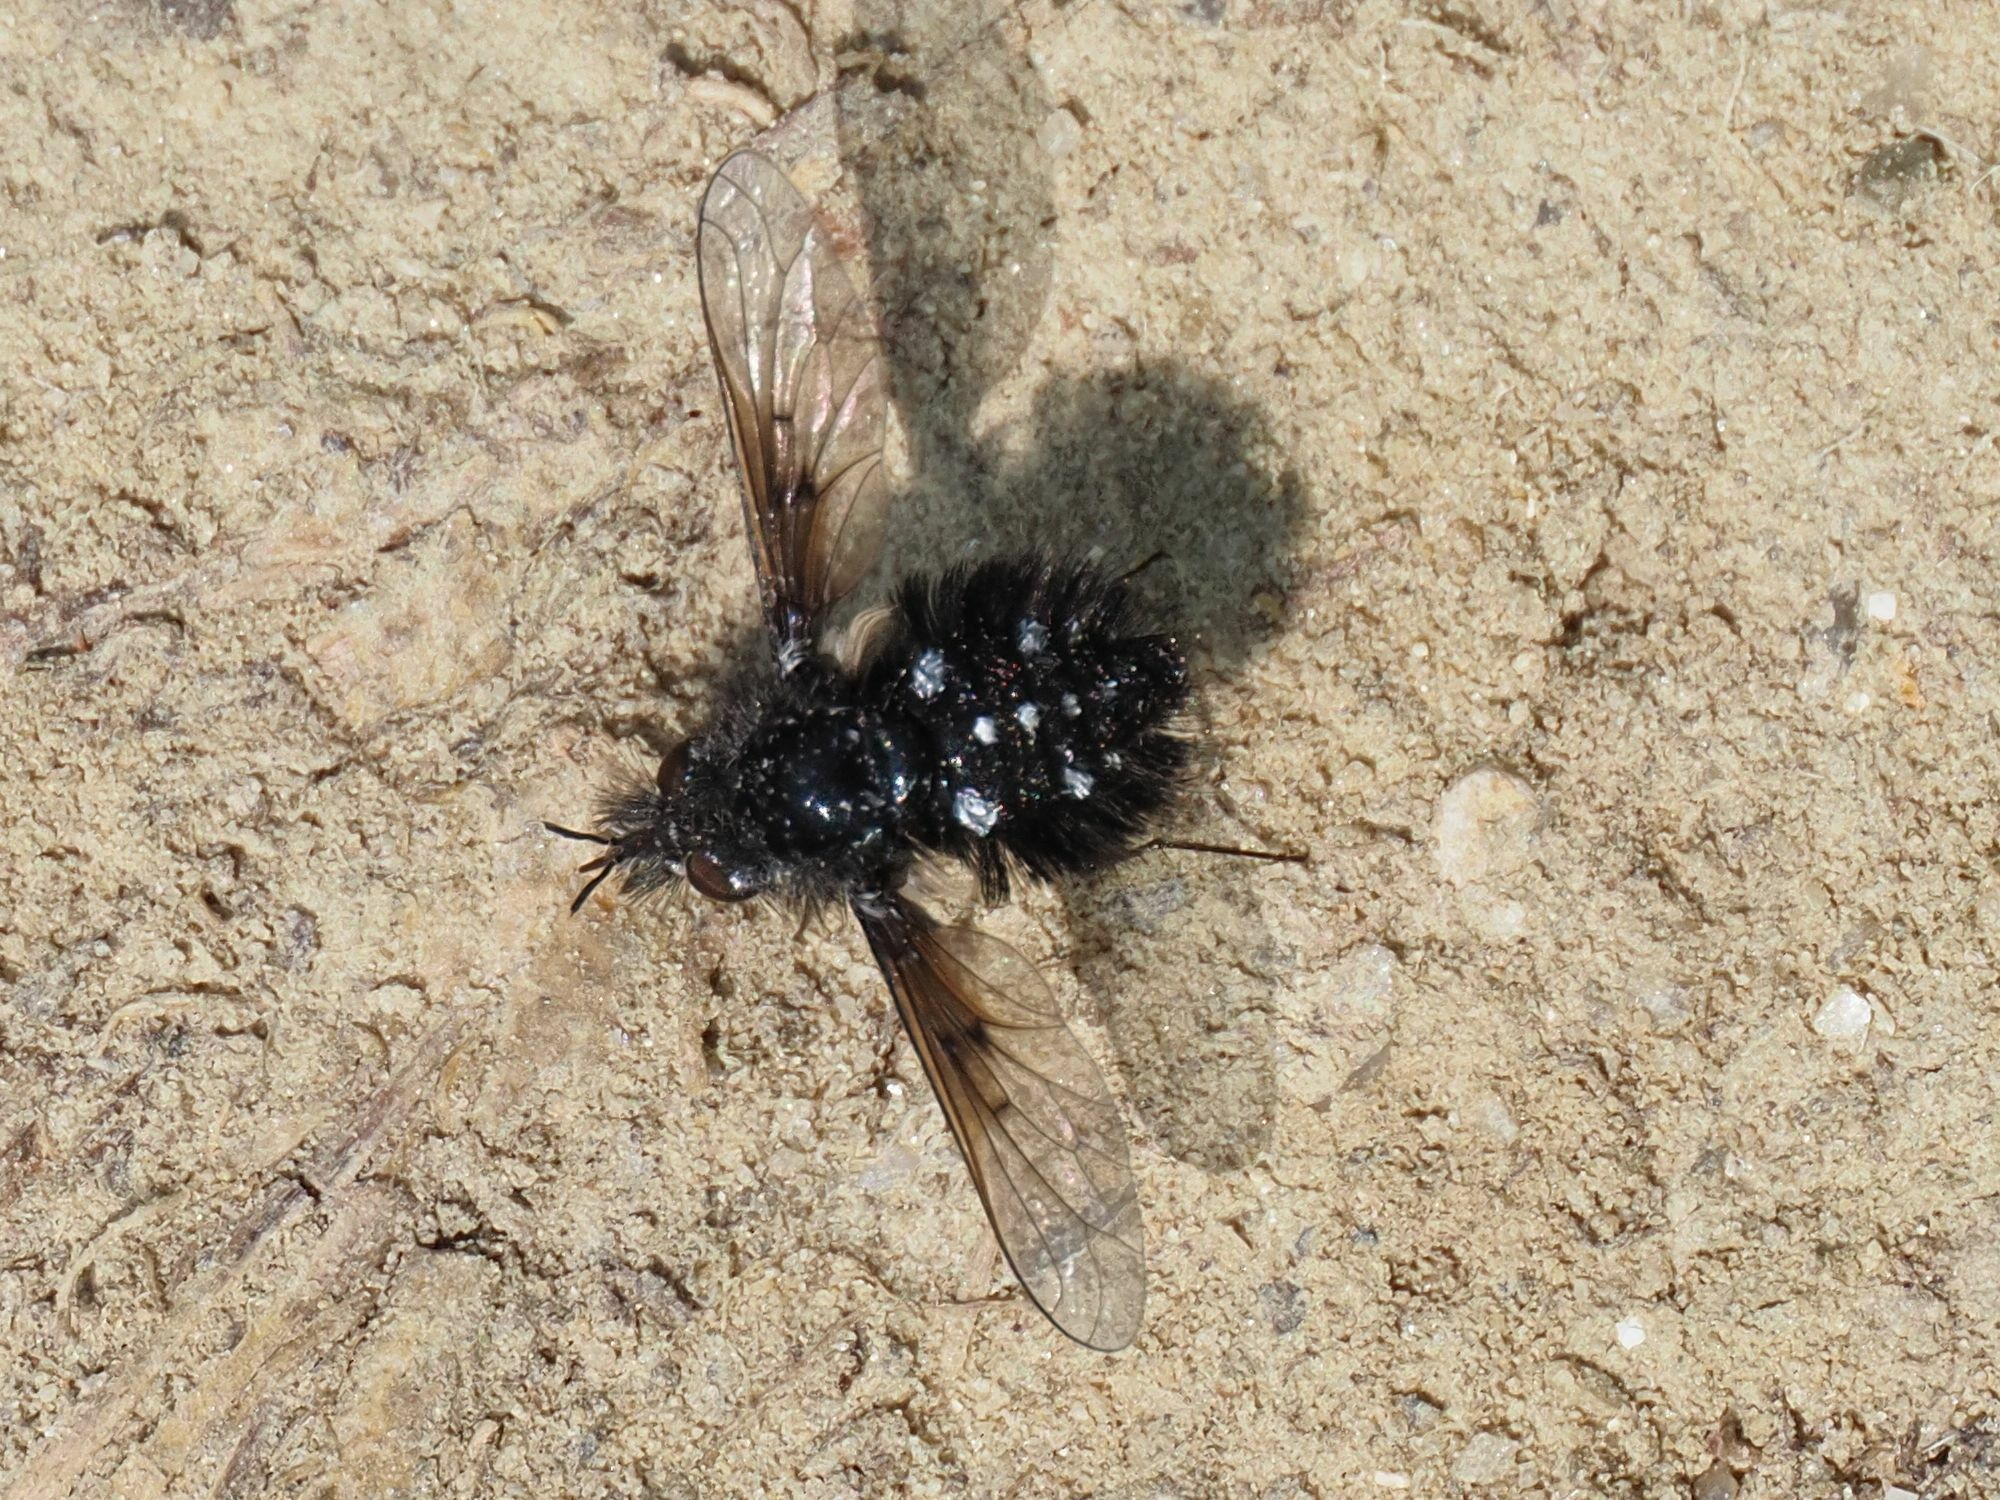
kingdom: Animalia
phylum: Arthropoda
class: Insecta
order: Diptera
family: Bombyliidae
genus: Bombylella
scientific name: Bombylella atra
